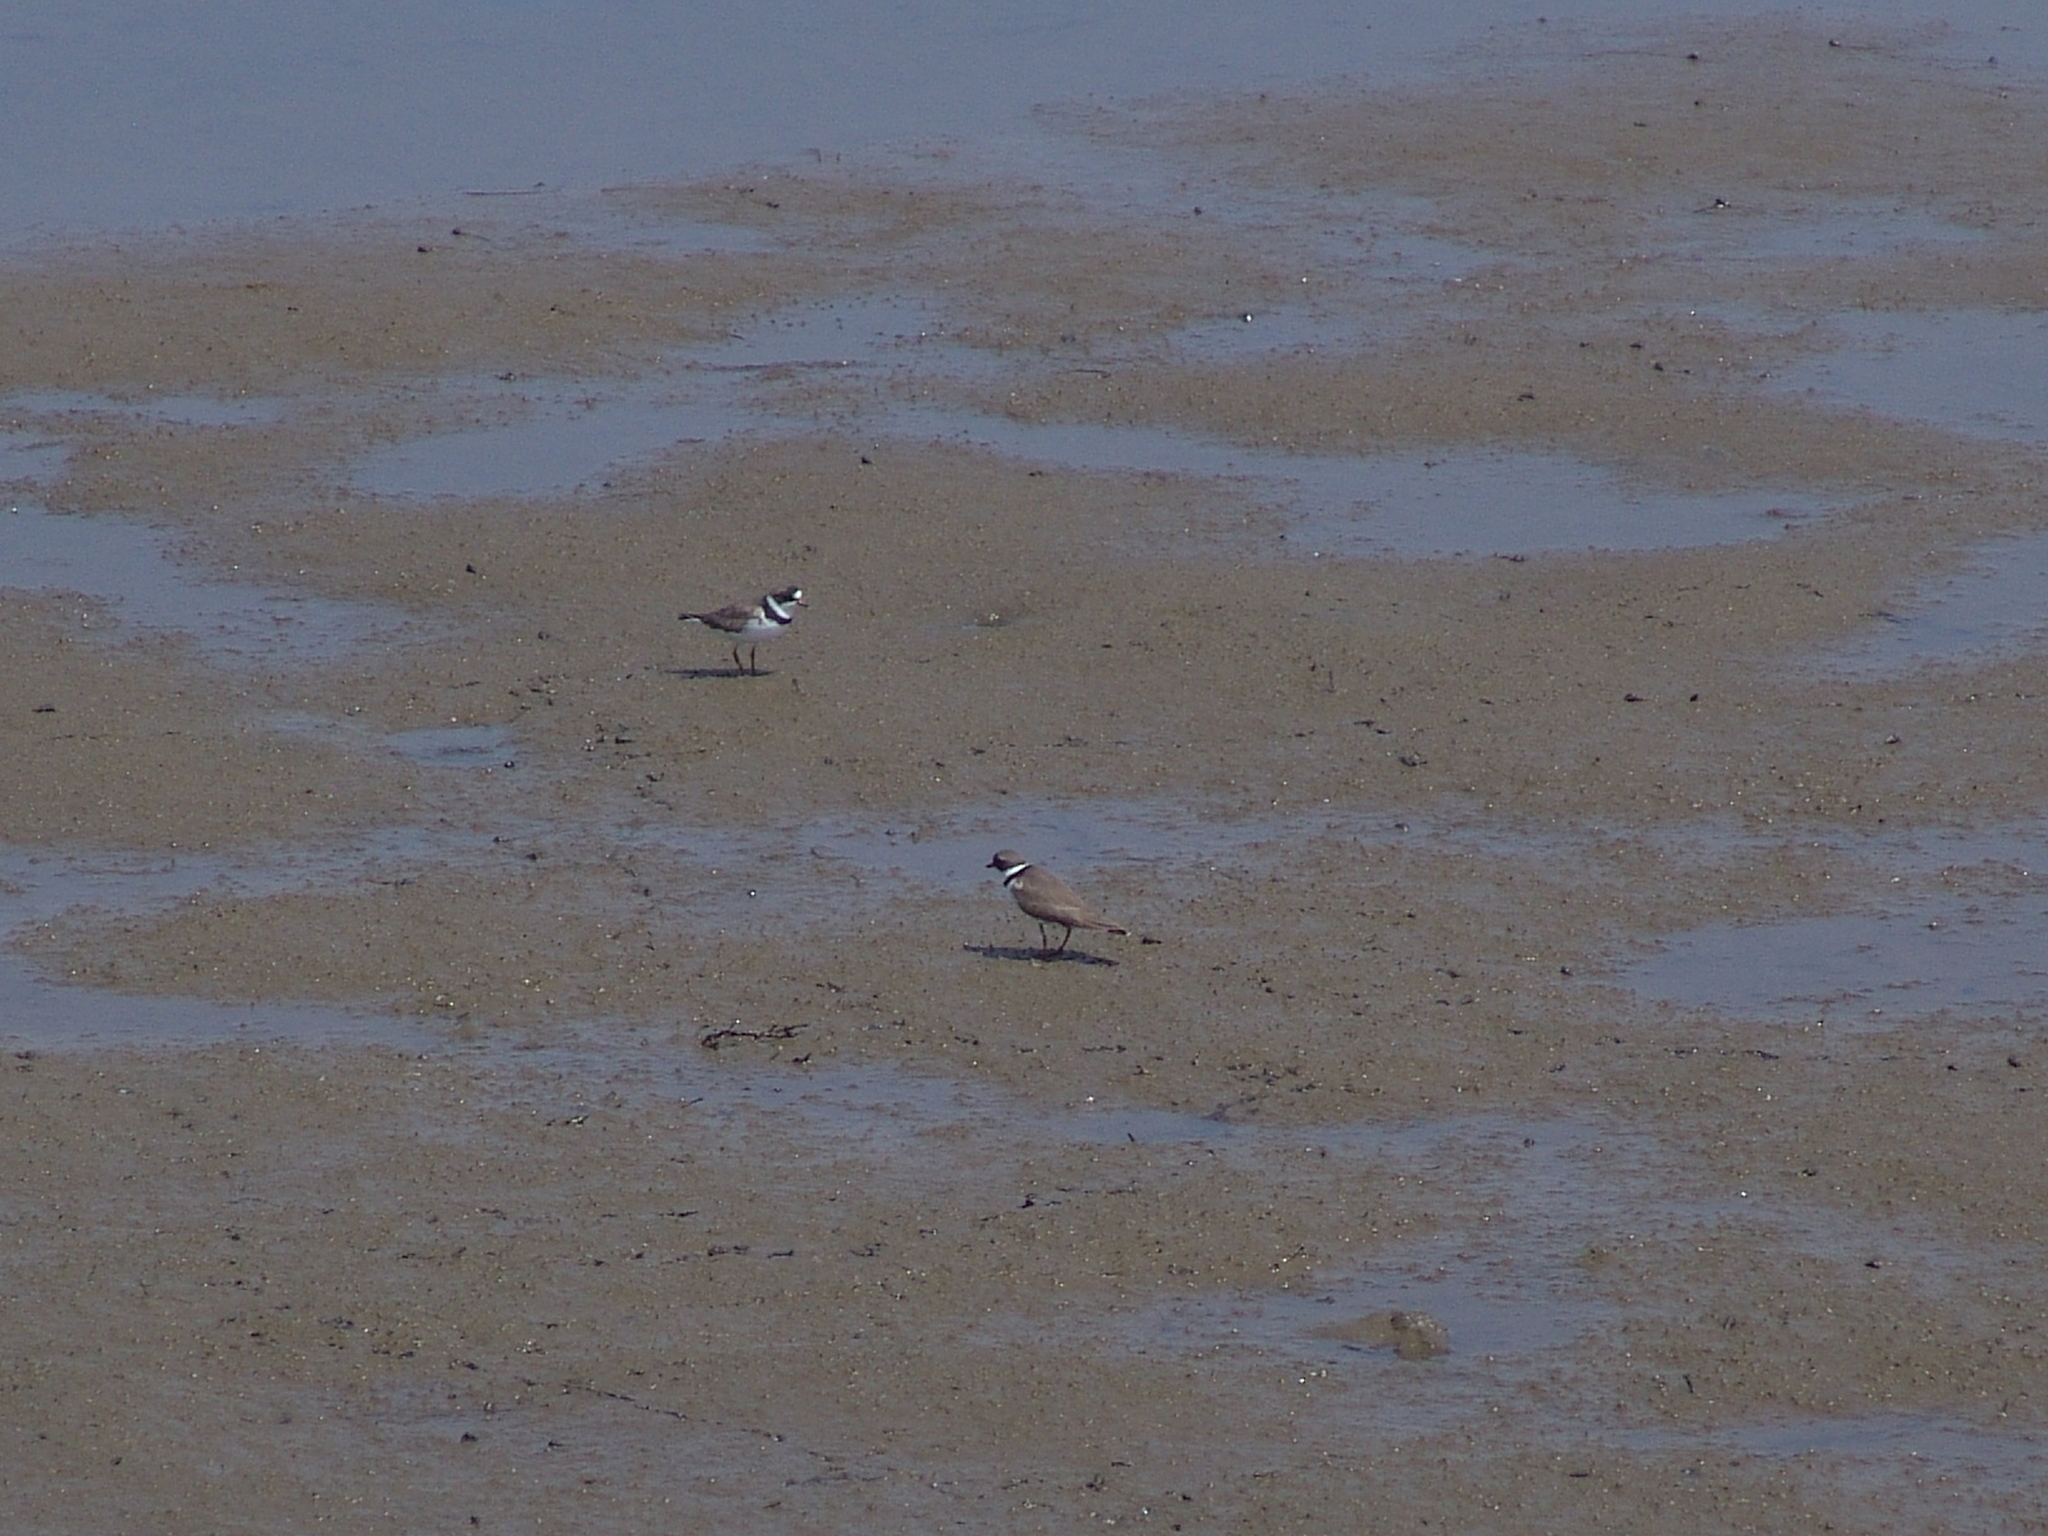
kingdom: Animalia
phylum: Chordata
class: Aves
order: Charadriiformes
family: Charadriidae
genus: Charadrius
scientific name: Charadrius semipalmatus
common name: Semipalmated plover
